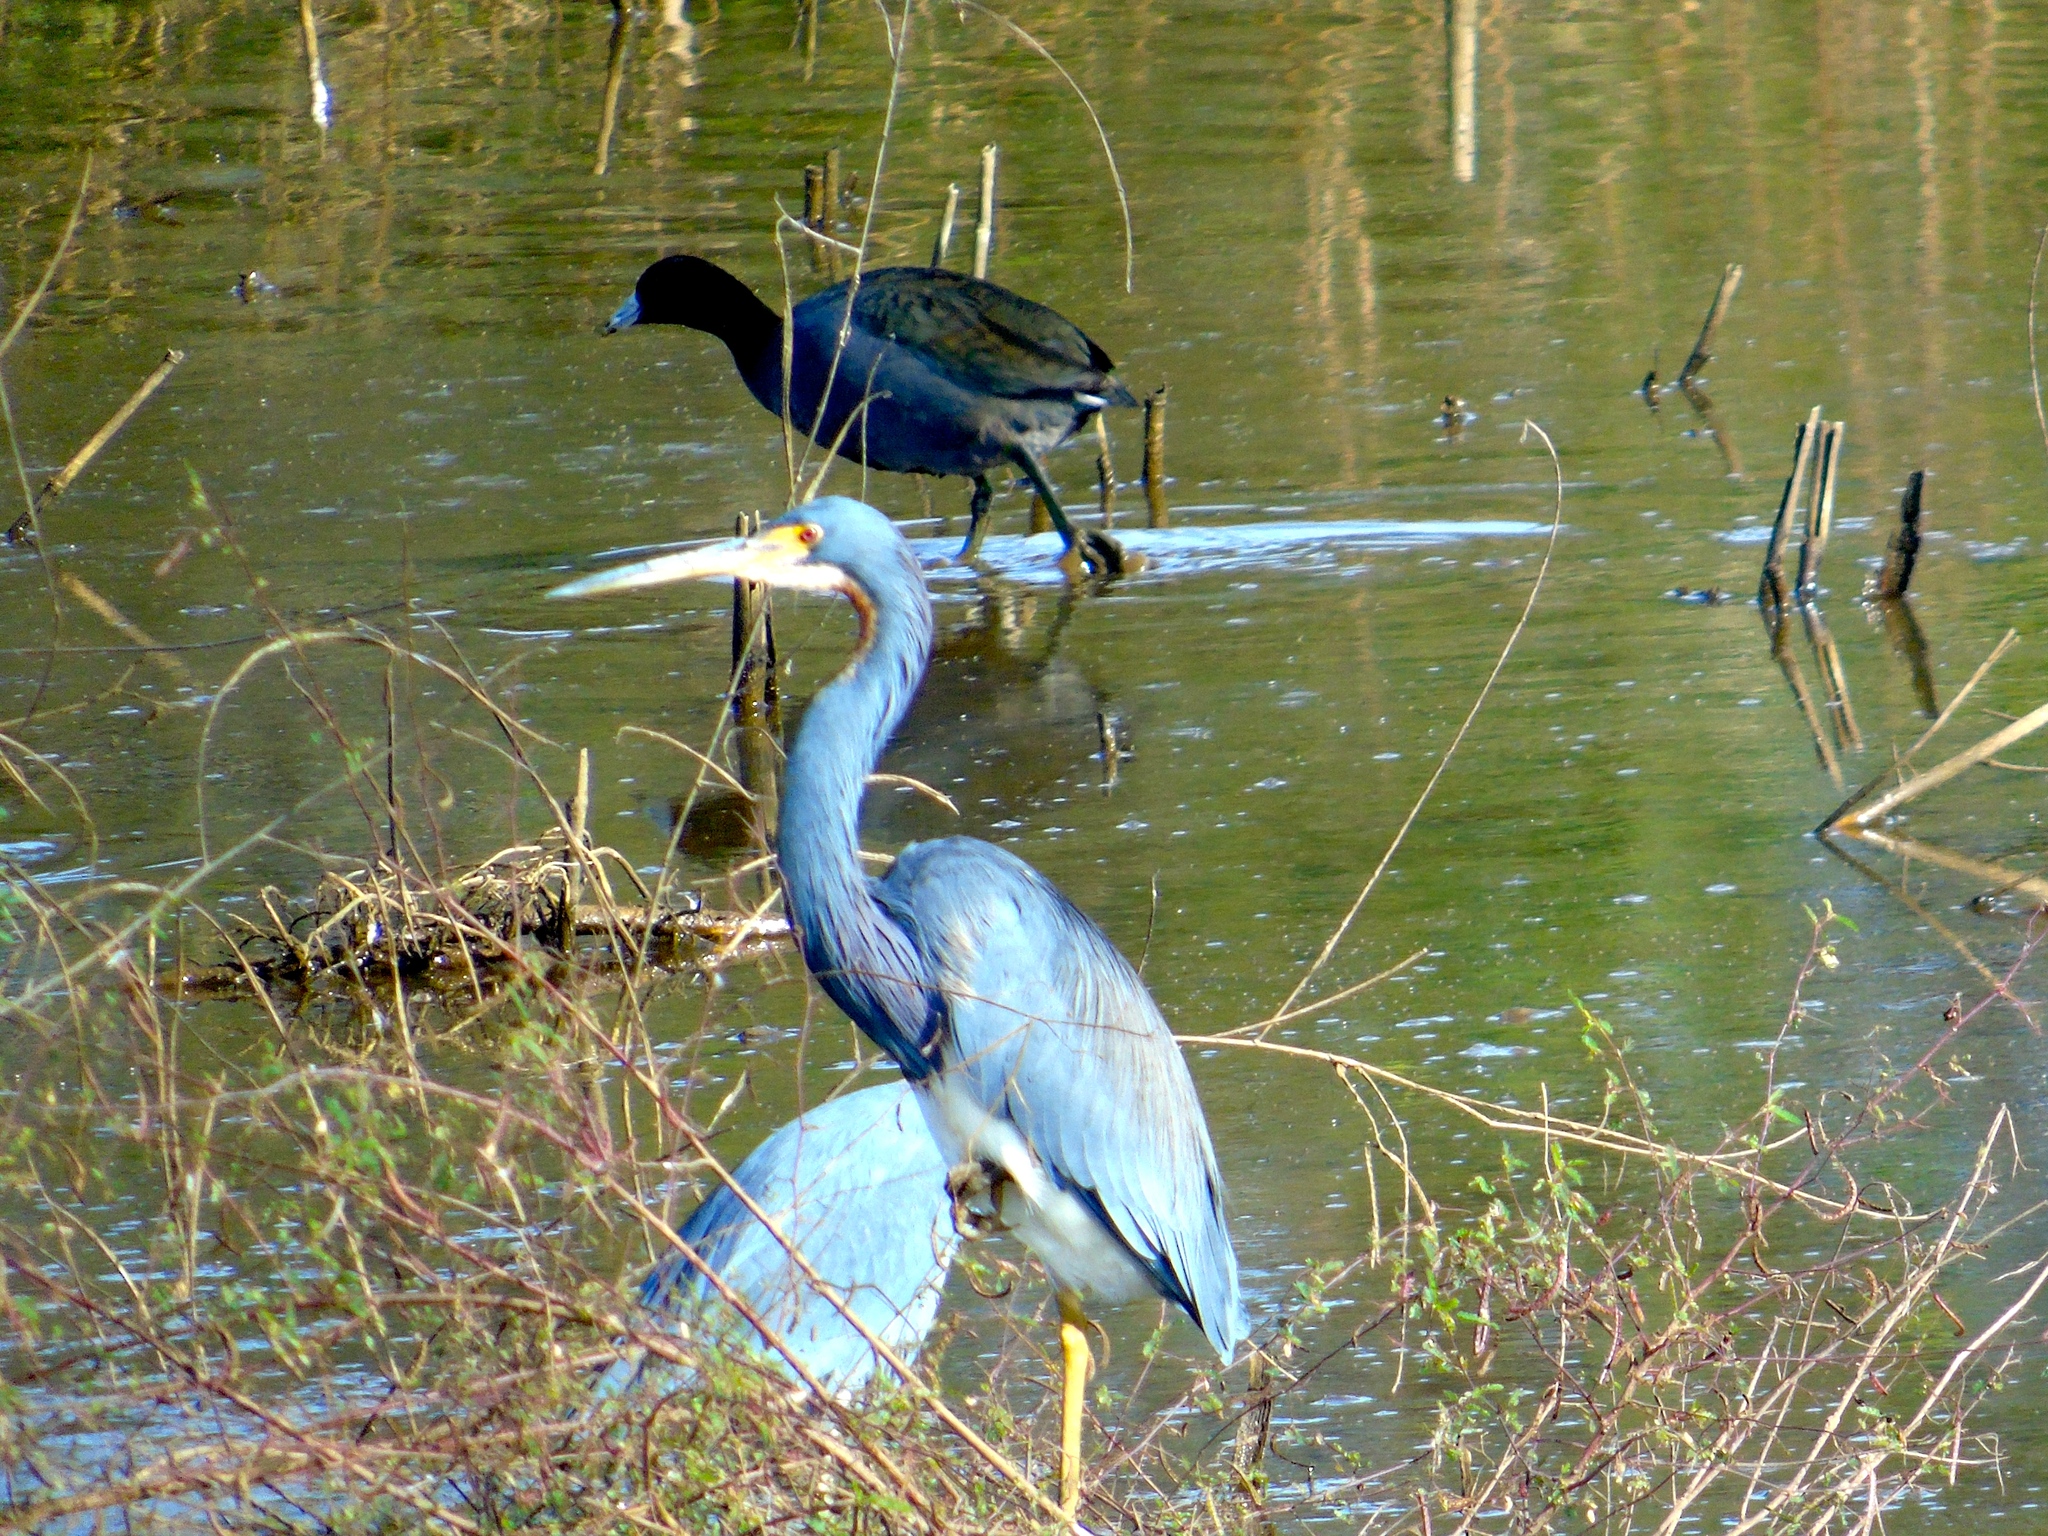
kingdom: Animalia
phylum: Chordata
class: Aves
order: Pelecaniformes
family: Ardeidae
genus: Egretta
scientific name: Egretta tricolor
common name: Tricolored heron
